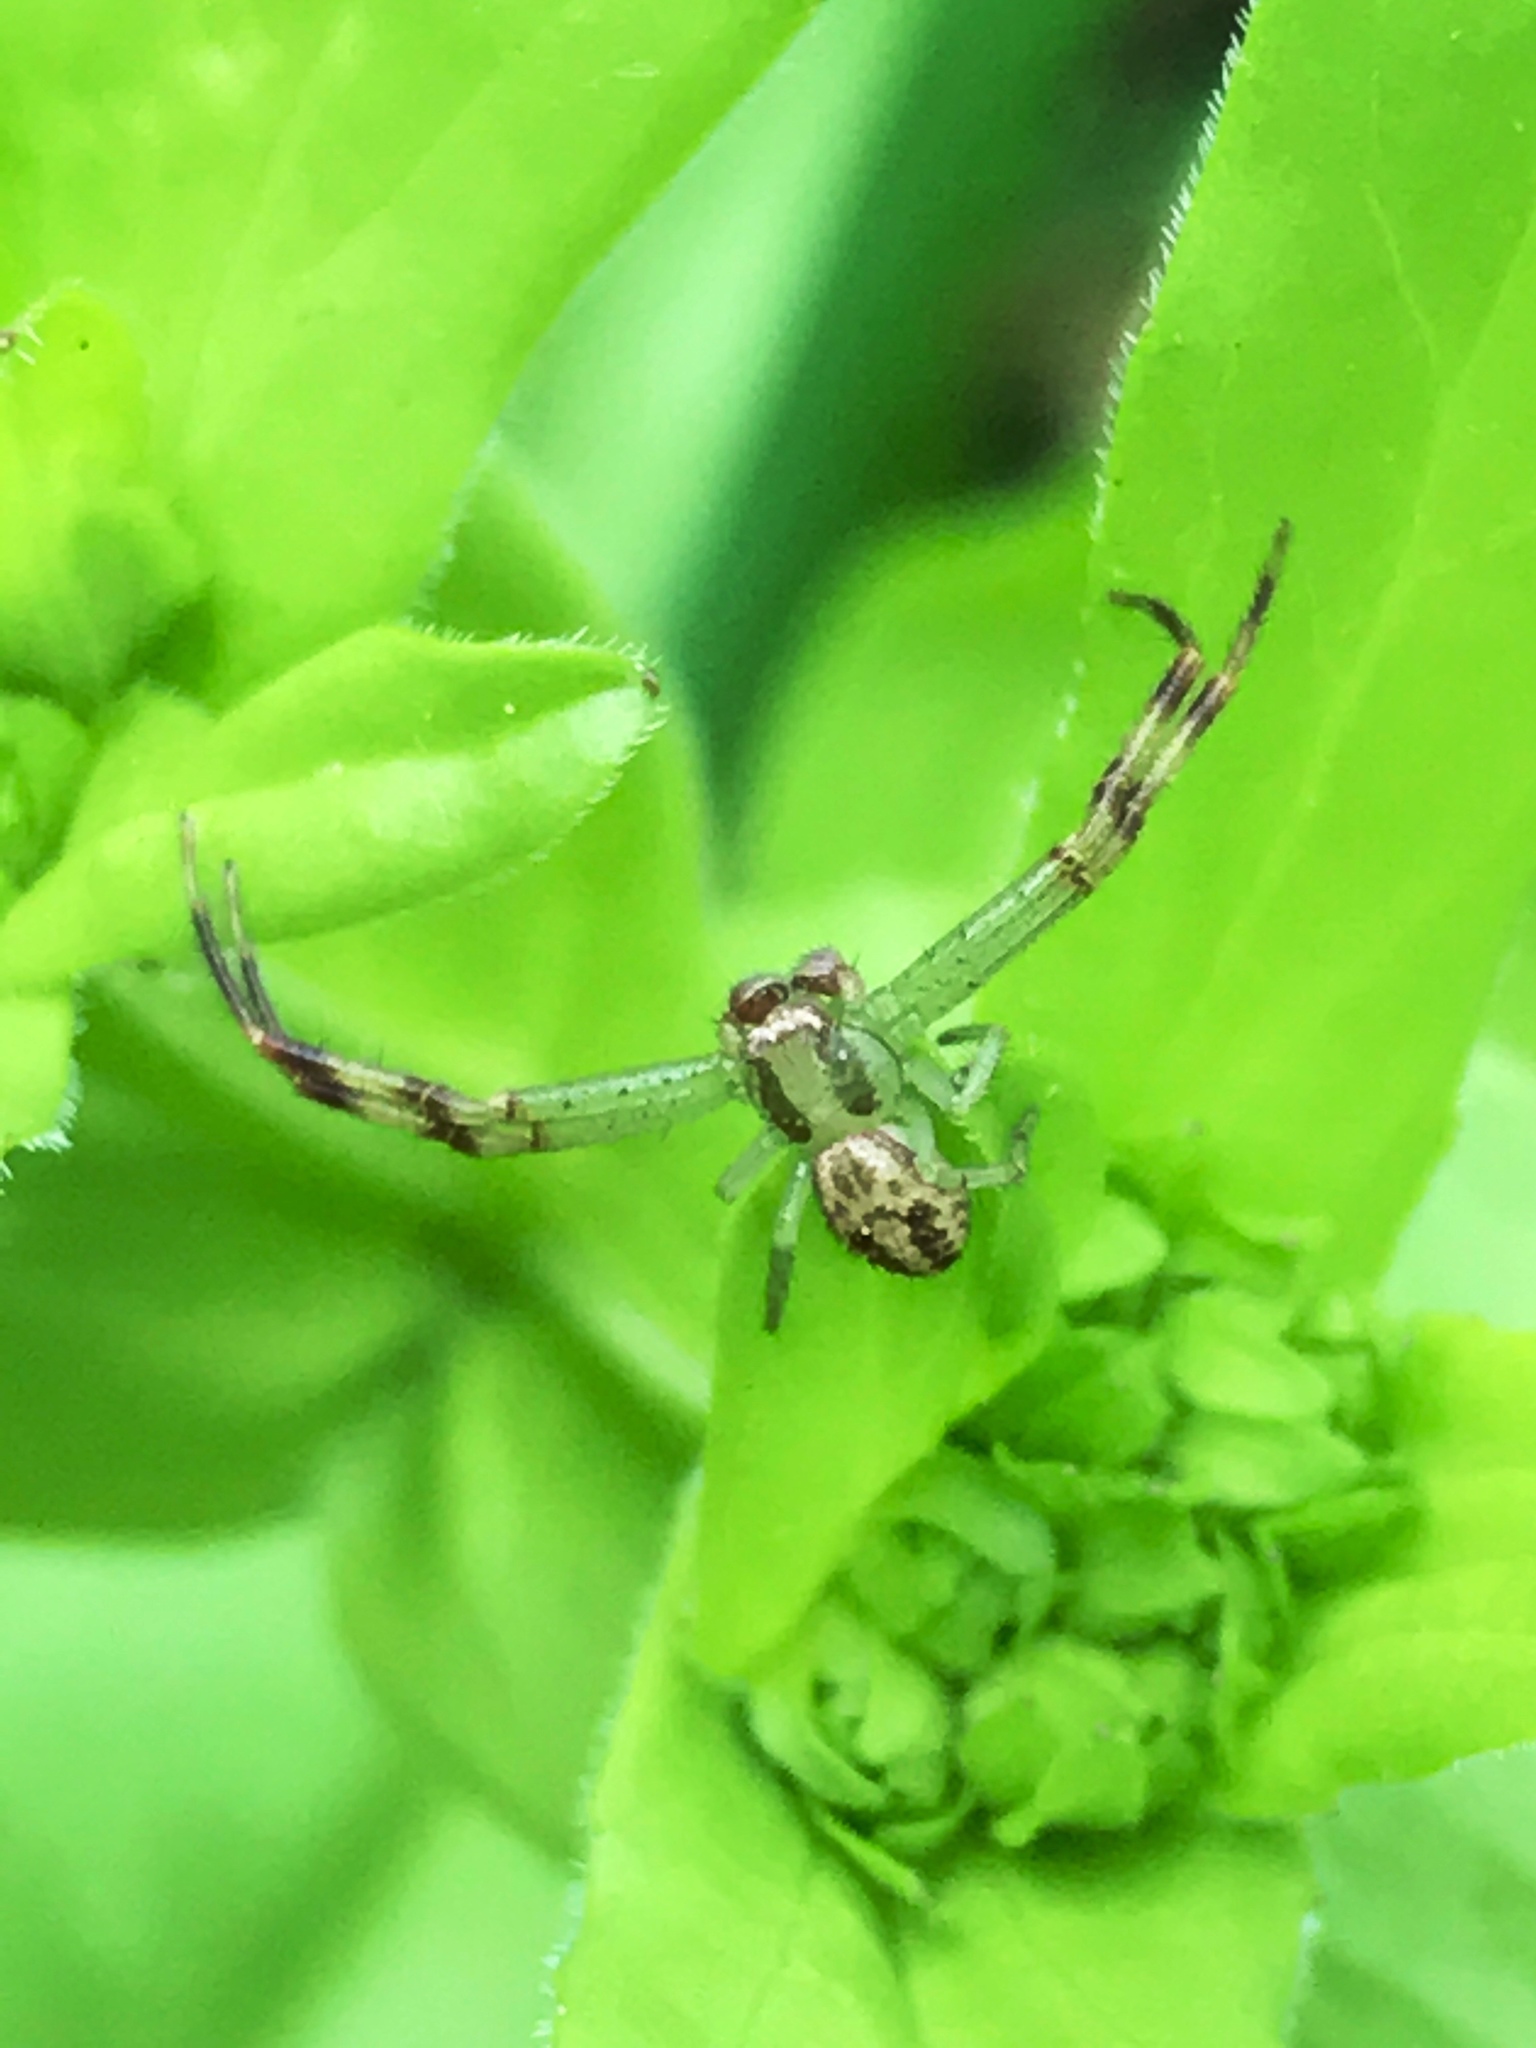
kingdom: Animalia
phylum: Arthropoda
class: Arachnida
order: Araneae
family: Thomisidae
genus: Mecaphesa
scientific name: Mecaphesa asperata
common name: Crab spiders
